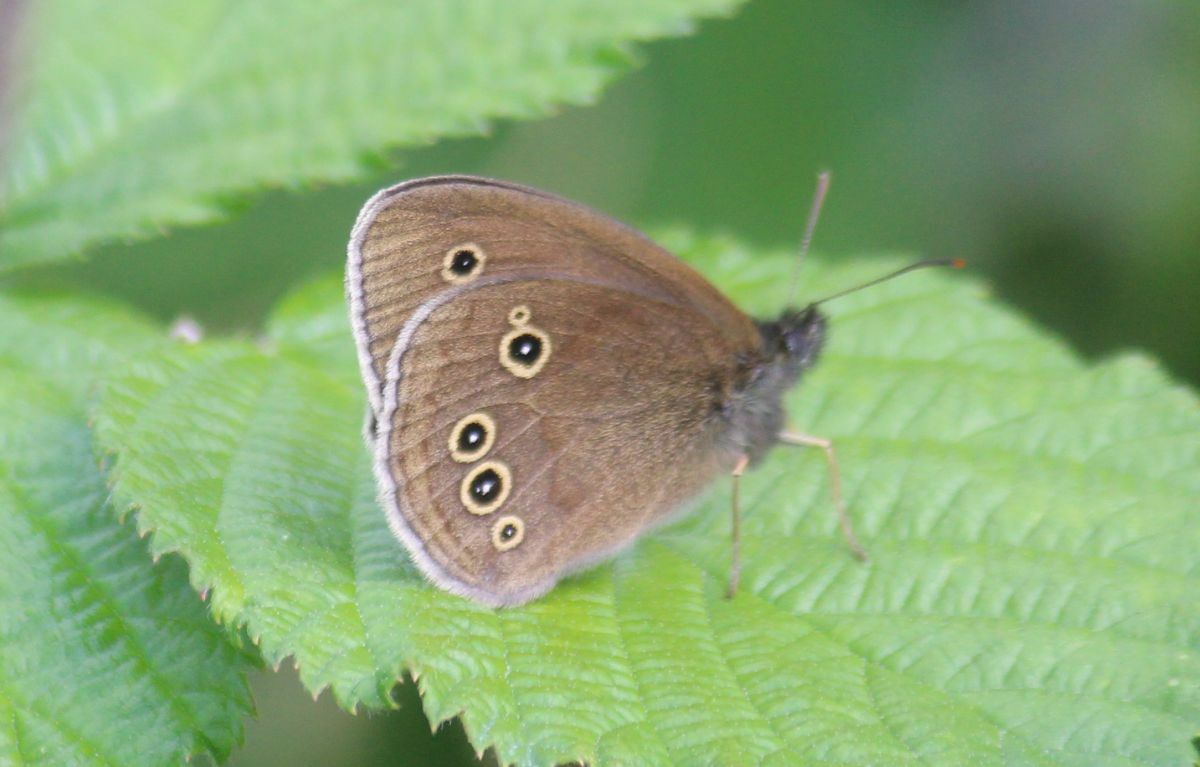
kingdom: Animalia
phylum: Arthropoda
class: Insecta
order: Lepidoptera
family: Nymphalidae
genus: Aphantopus
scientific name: Aphantopus hyperantus
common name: Ringlet
